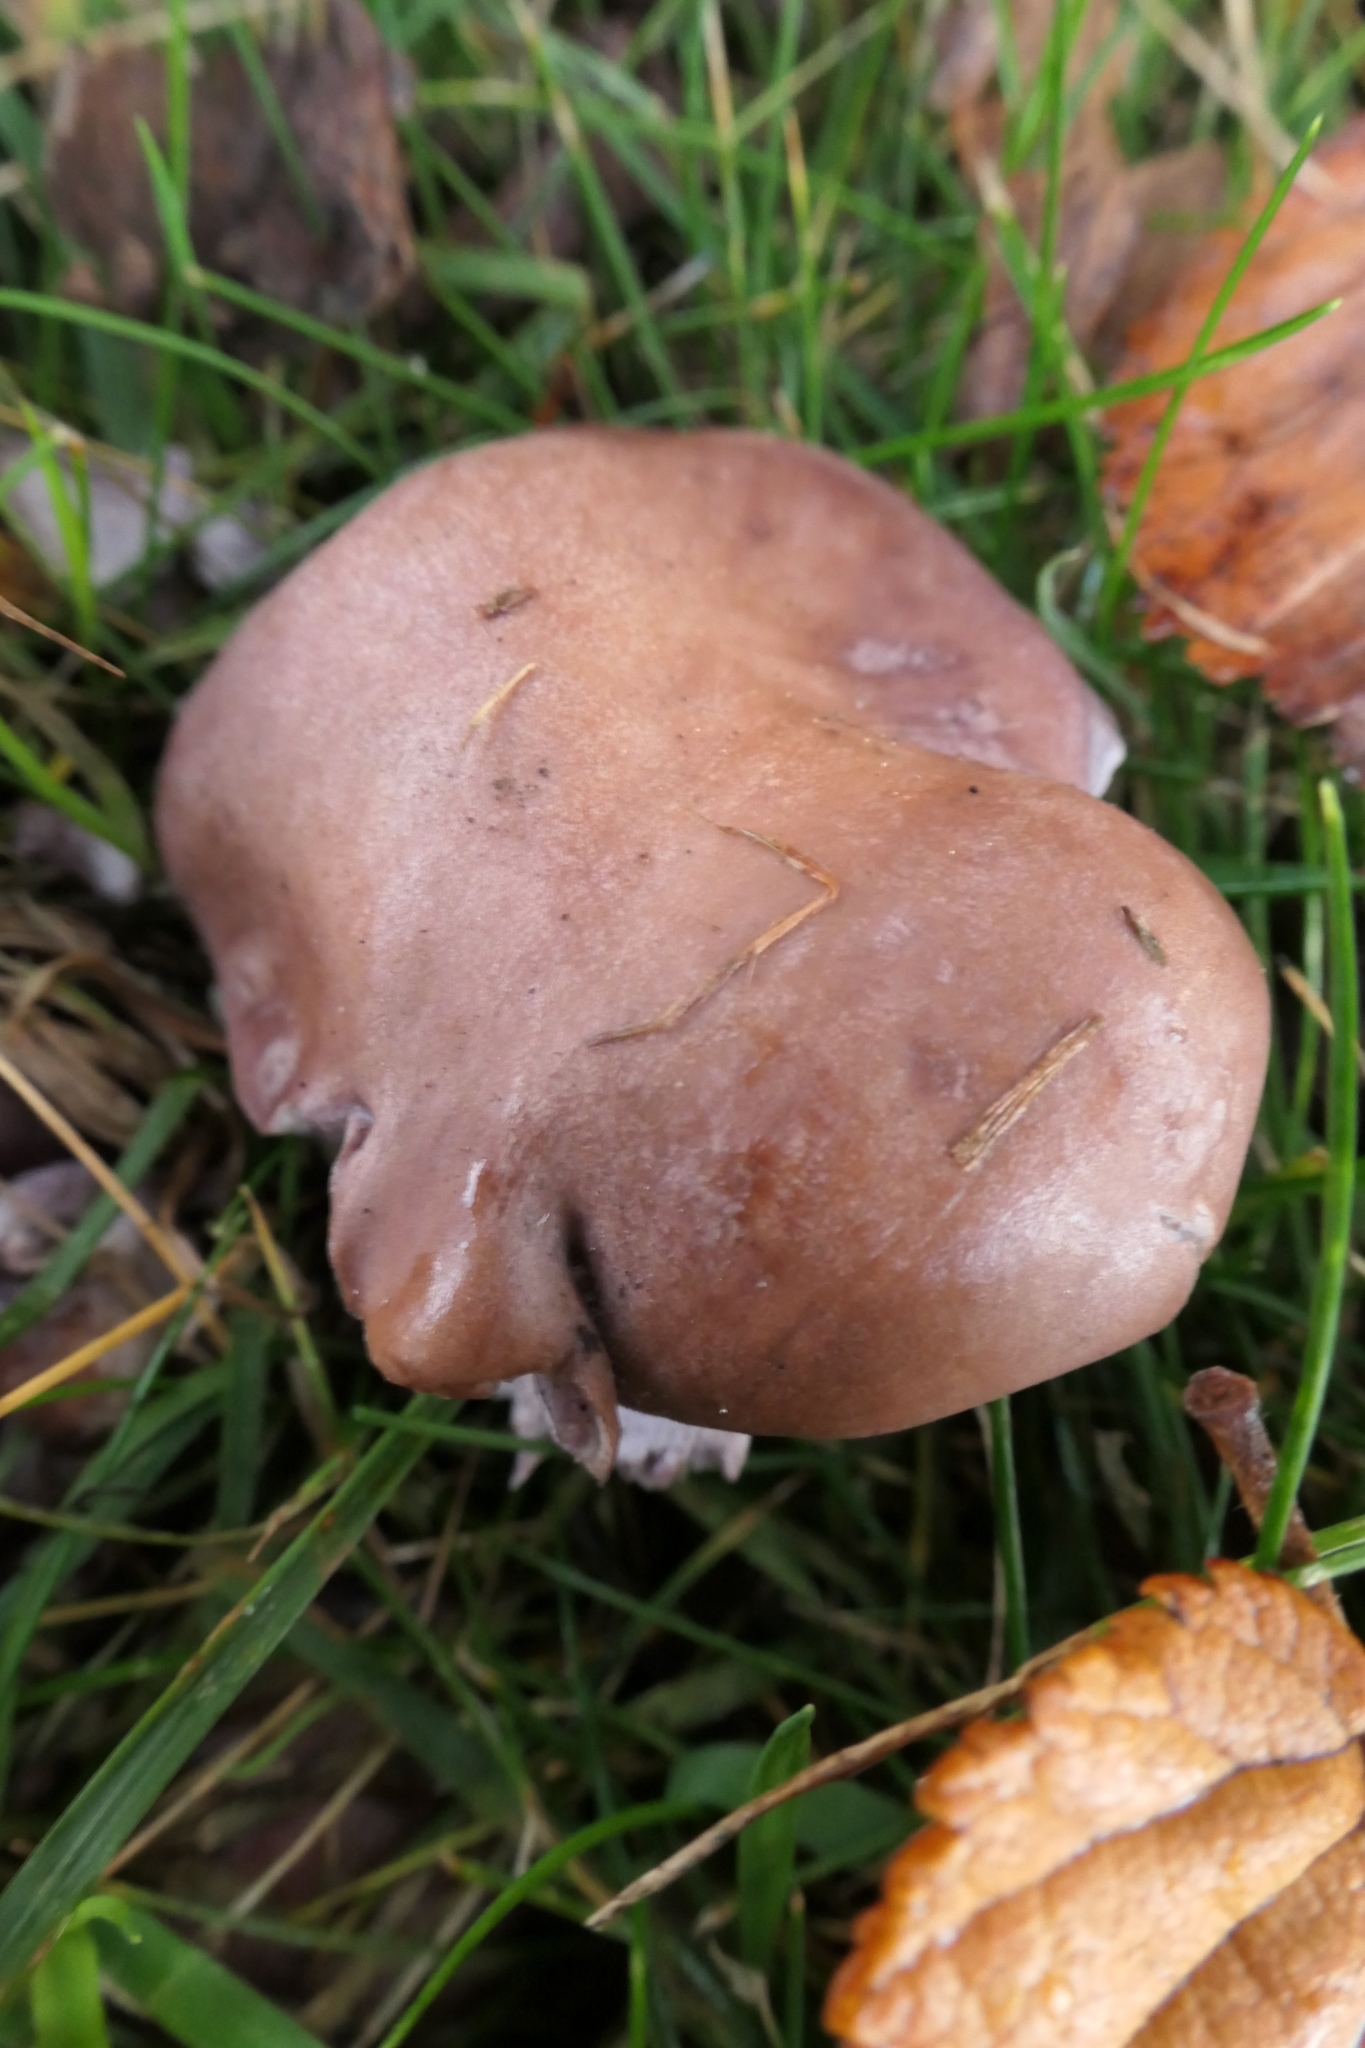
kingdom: Fungi
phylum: Basidiomycota
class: Agaricomycetes
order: Agaricales
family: Tricholomataceae
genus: Collybia
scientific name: Collybia
